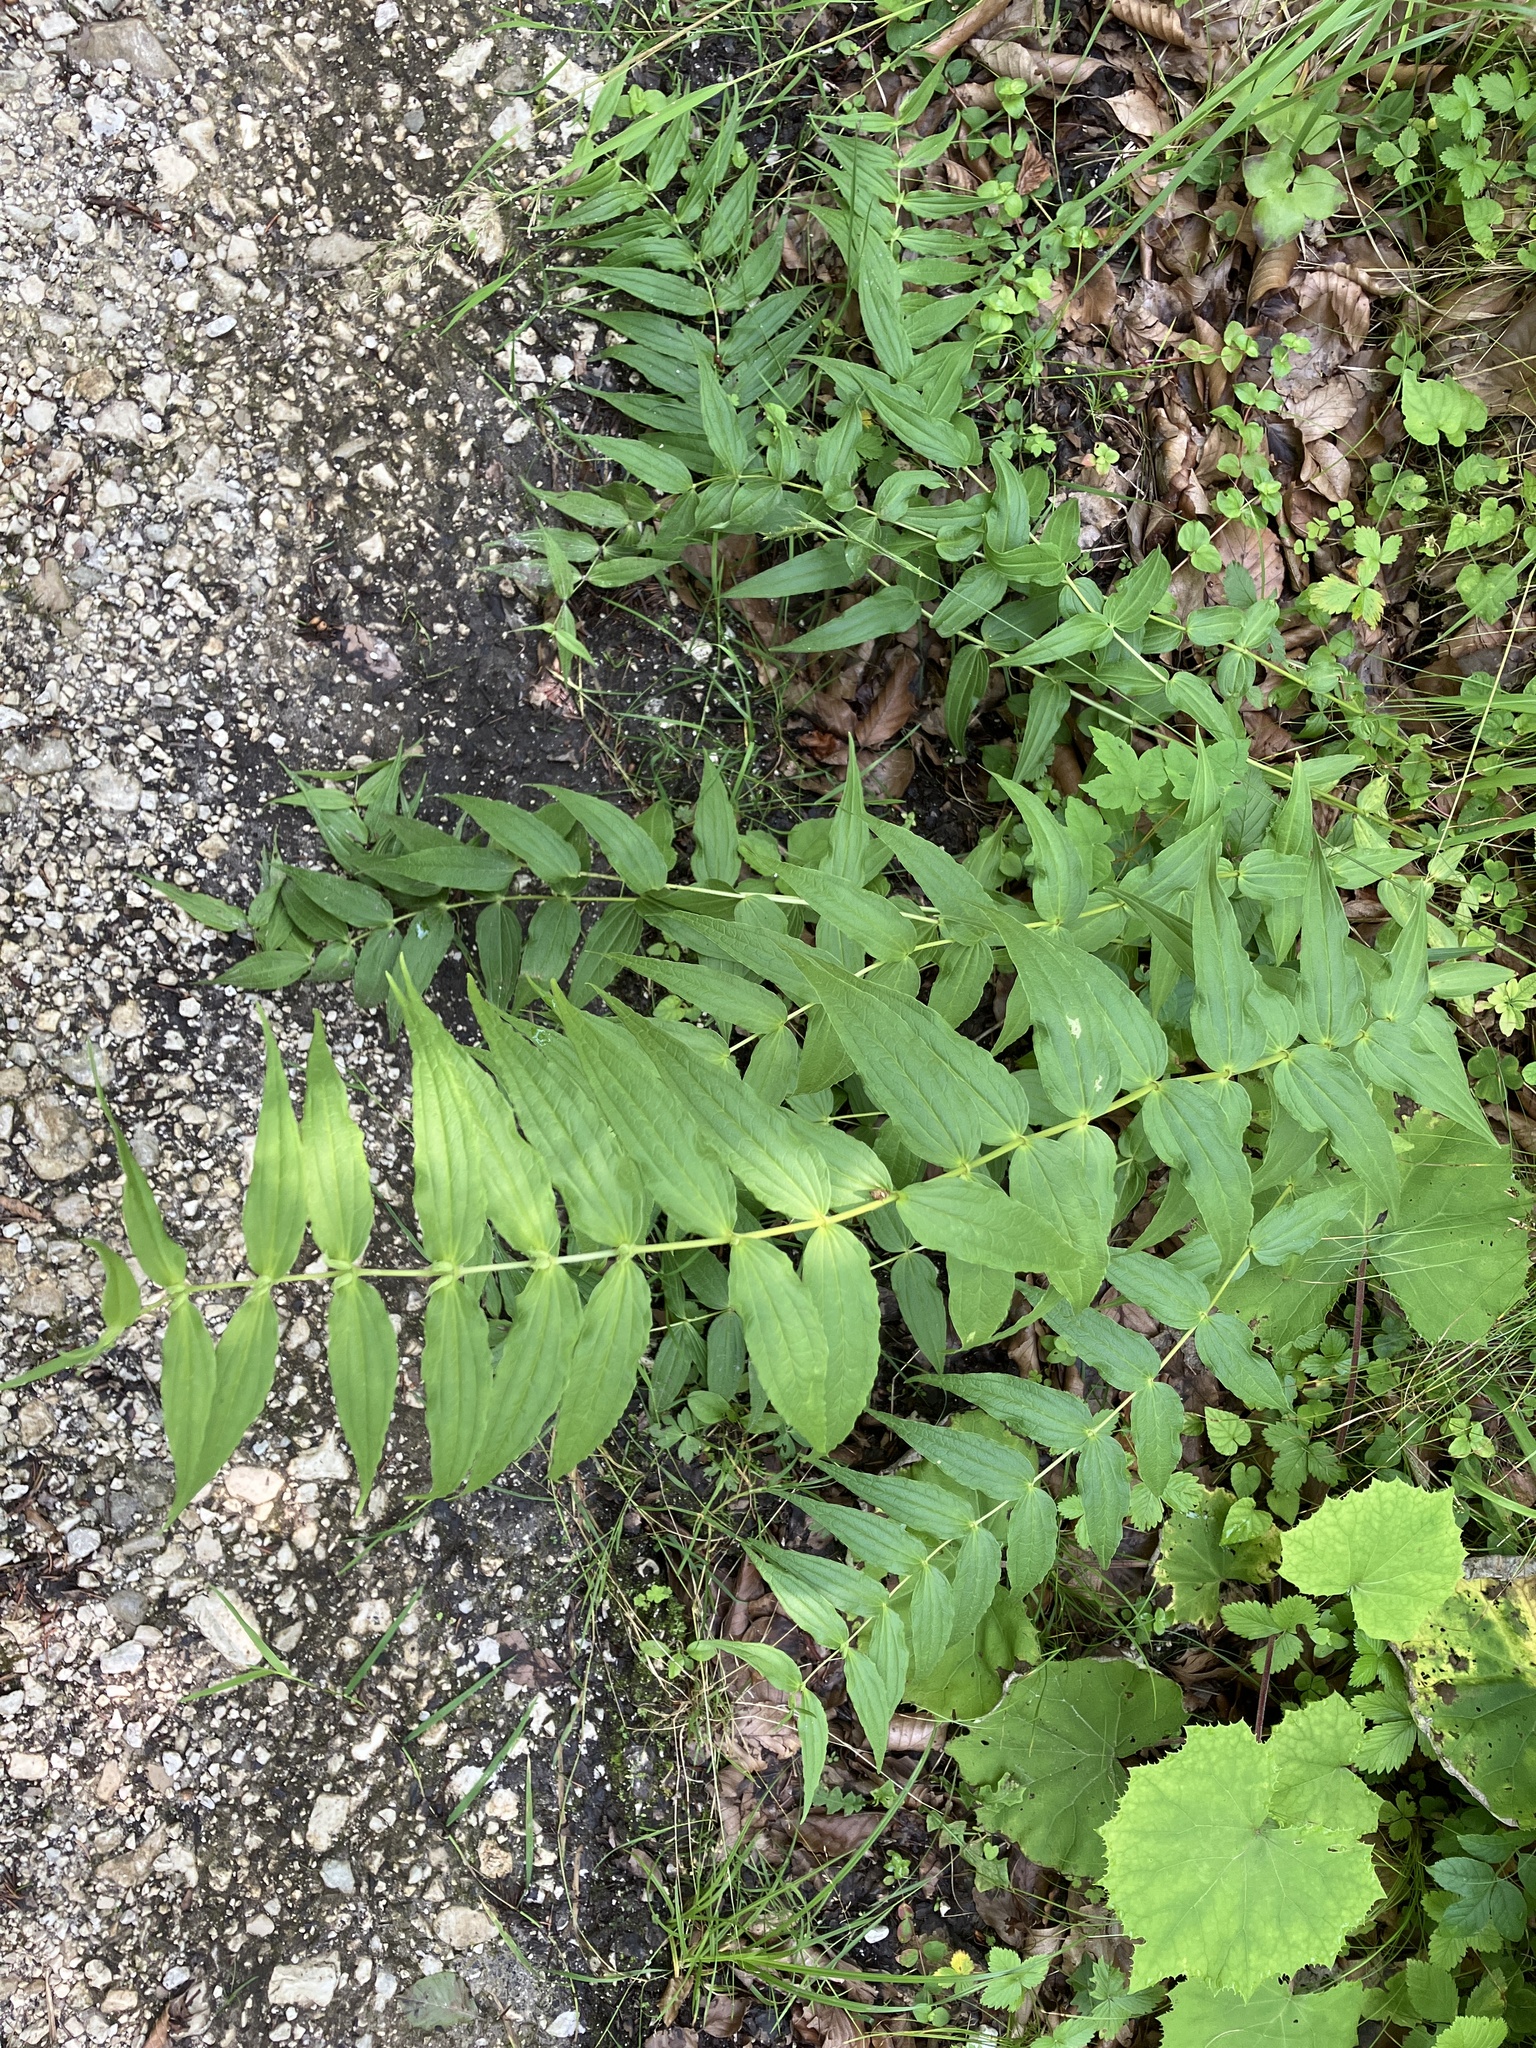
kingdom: Plantae
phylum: Tracheophyta
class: Magnoliopsida
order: Gentianales
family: Gentianaceae
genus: Gentiana
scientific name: Gentiana asclepiadea
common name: Willow gentian
